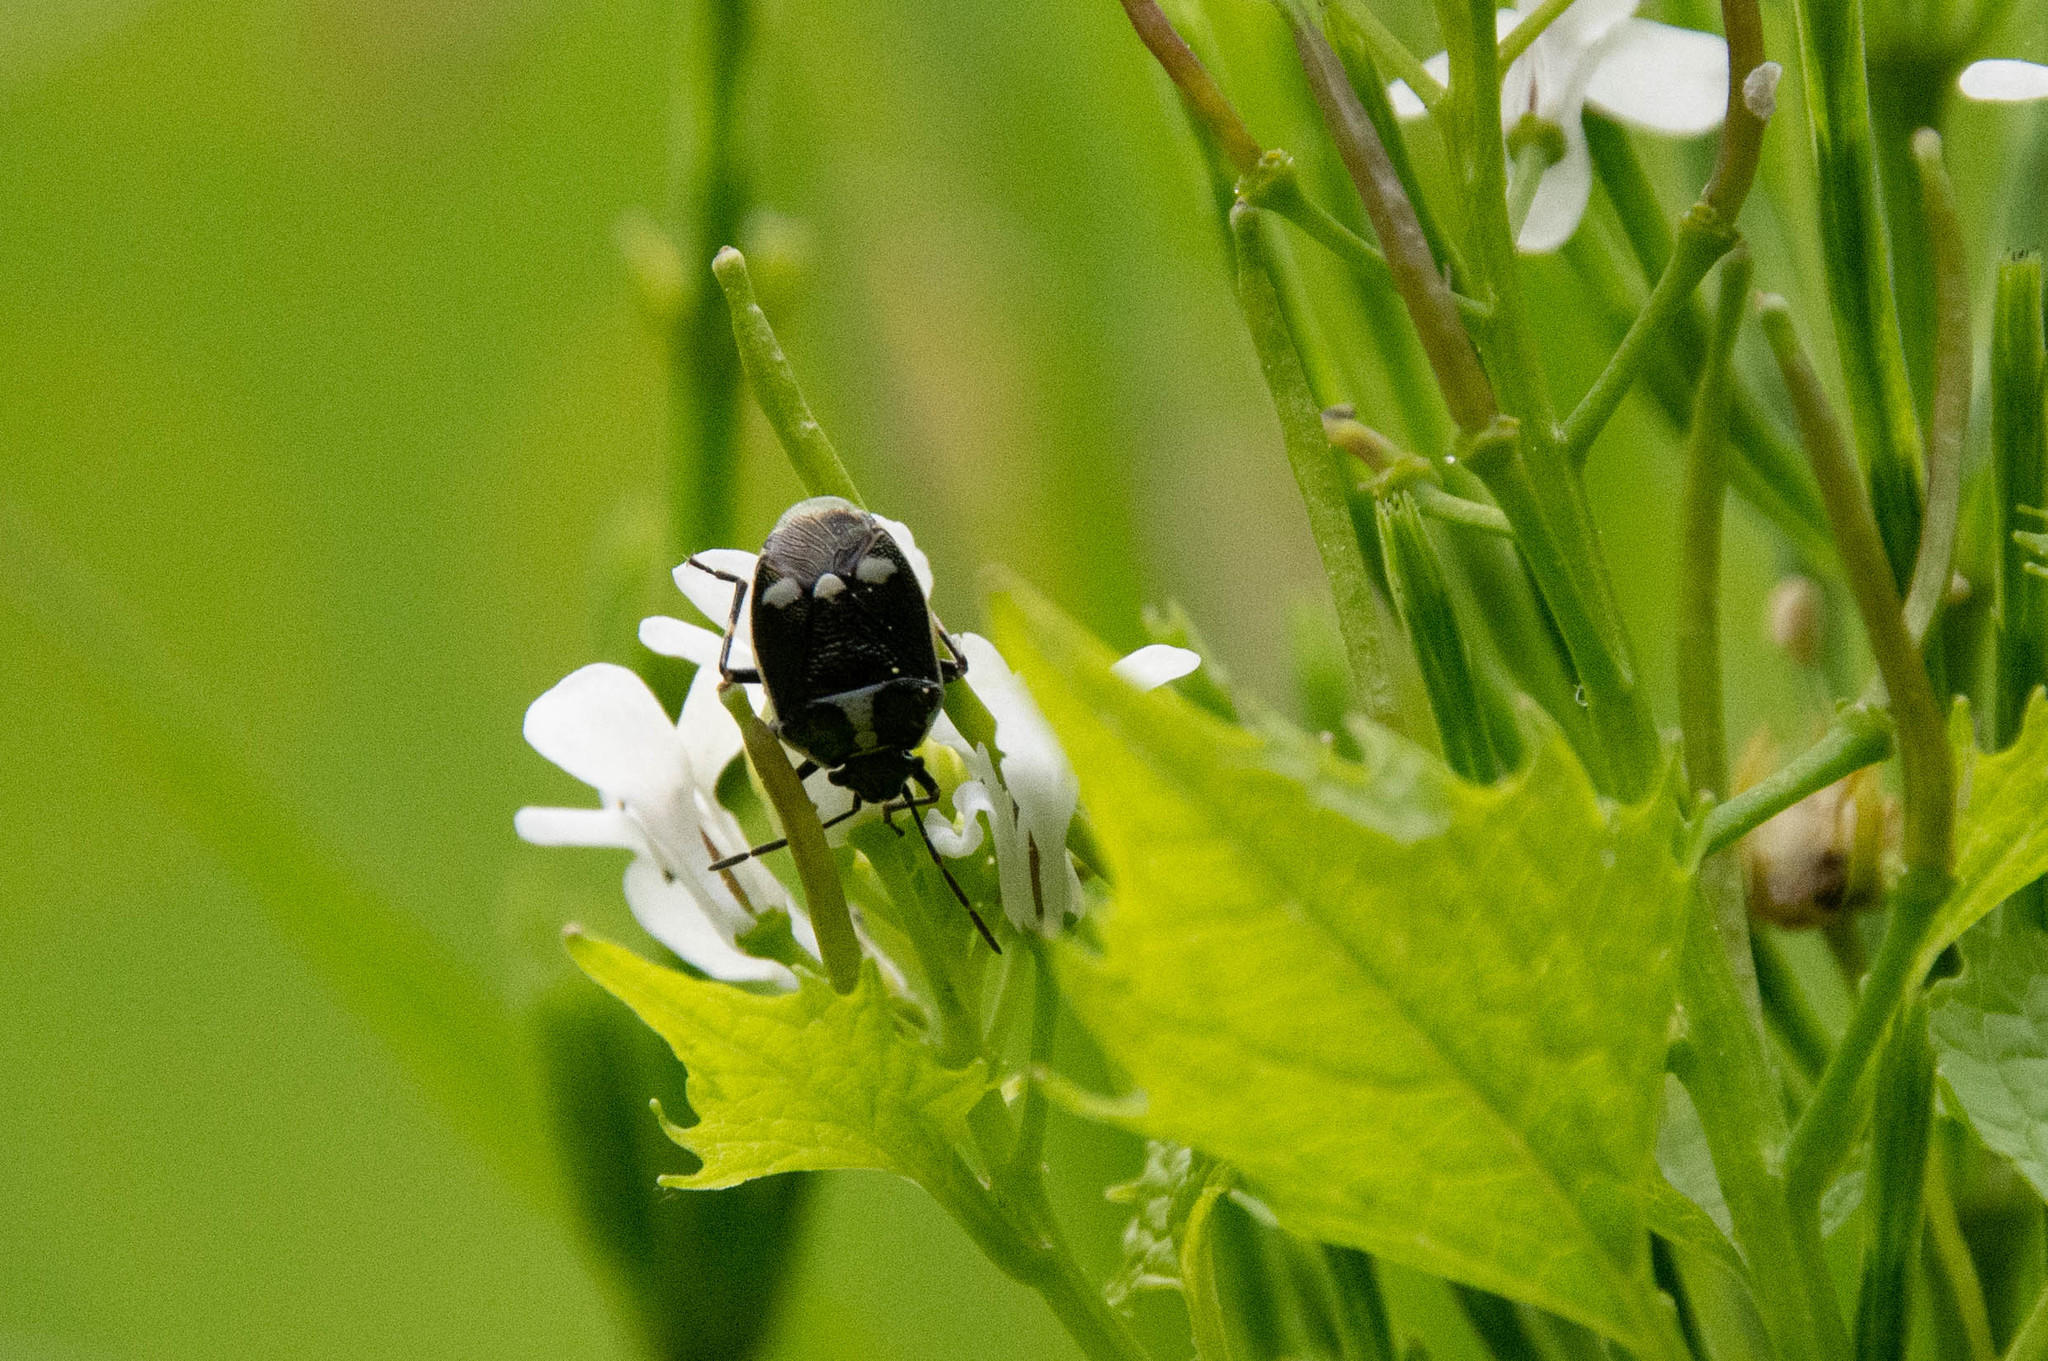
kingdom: Animalia
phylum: Arthropoda
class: Insecta
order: Hemiptera
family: Pentatomidae
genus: Eurydema
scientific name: Eurydema oleracea
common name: Cabbage bug
